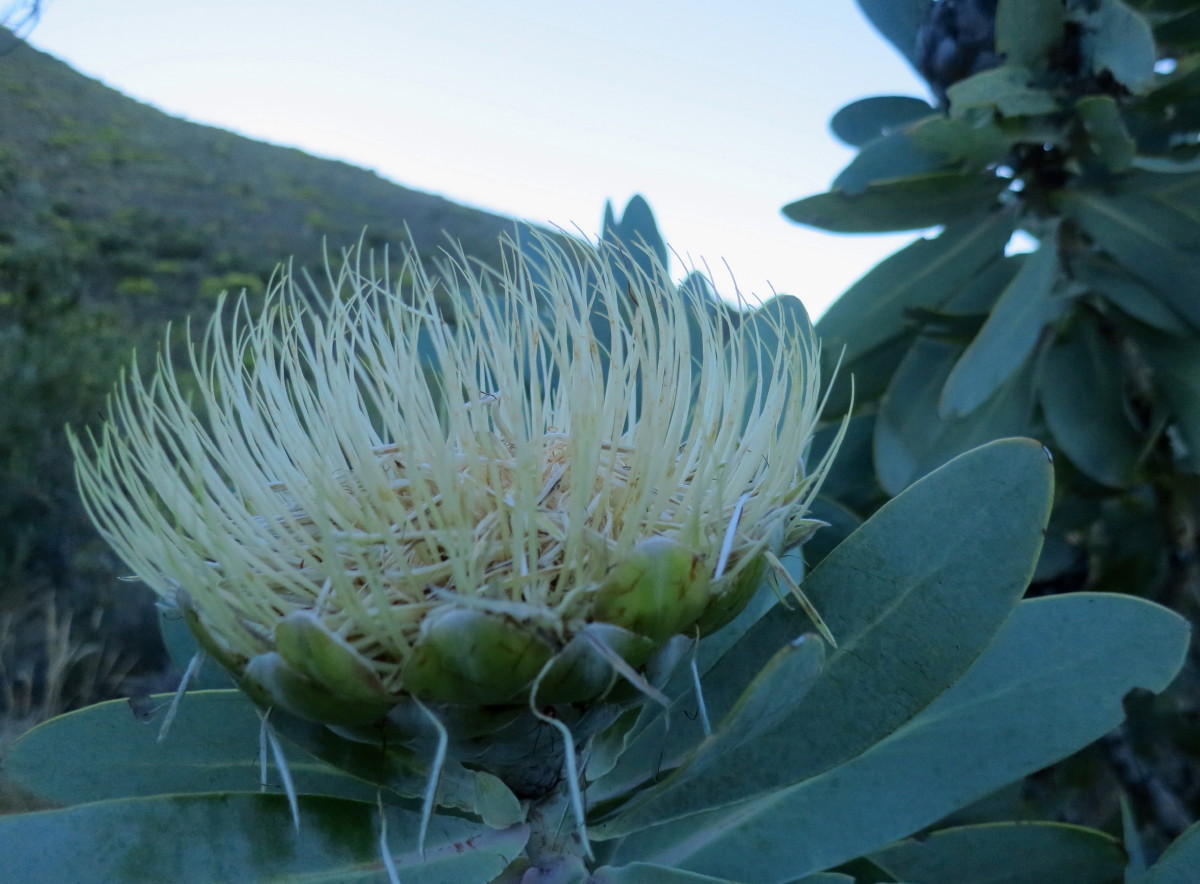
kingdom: Plantae
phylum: Tracheophyta
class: Magnoliopsida
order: Proteales
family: Proteaceae
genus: Protea
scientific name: Protea nitida
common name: Tree protea
